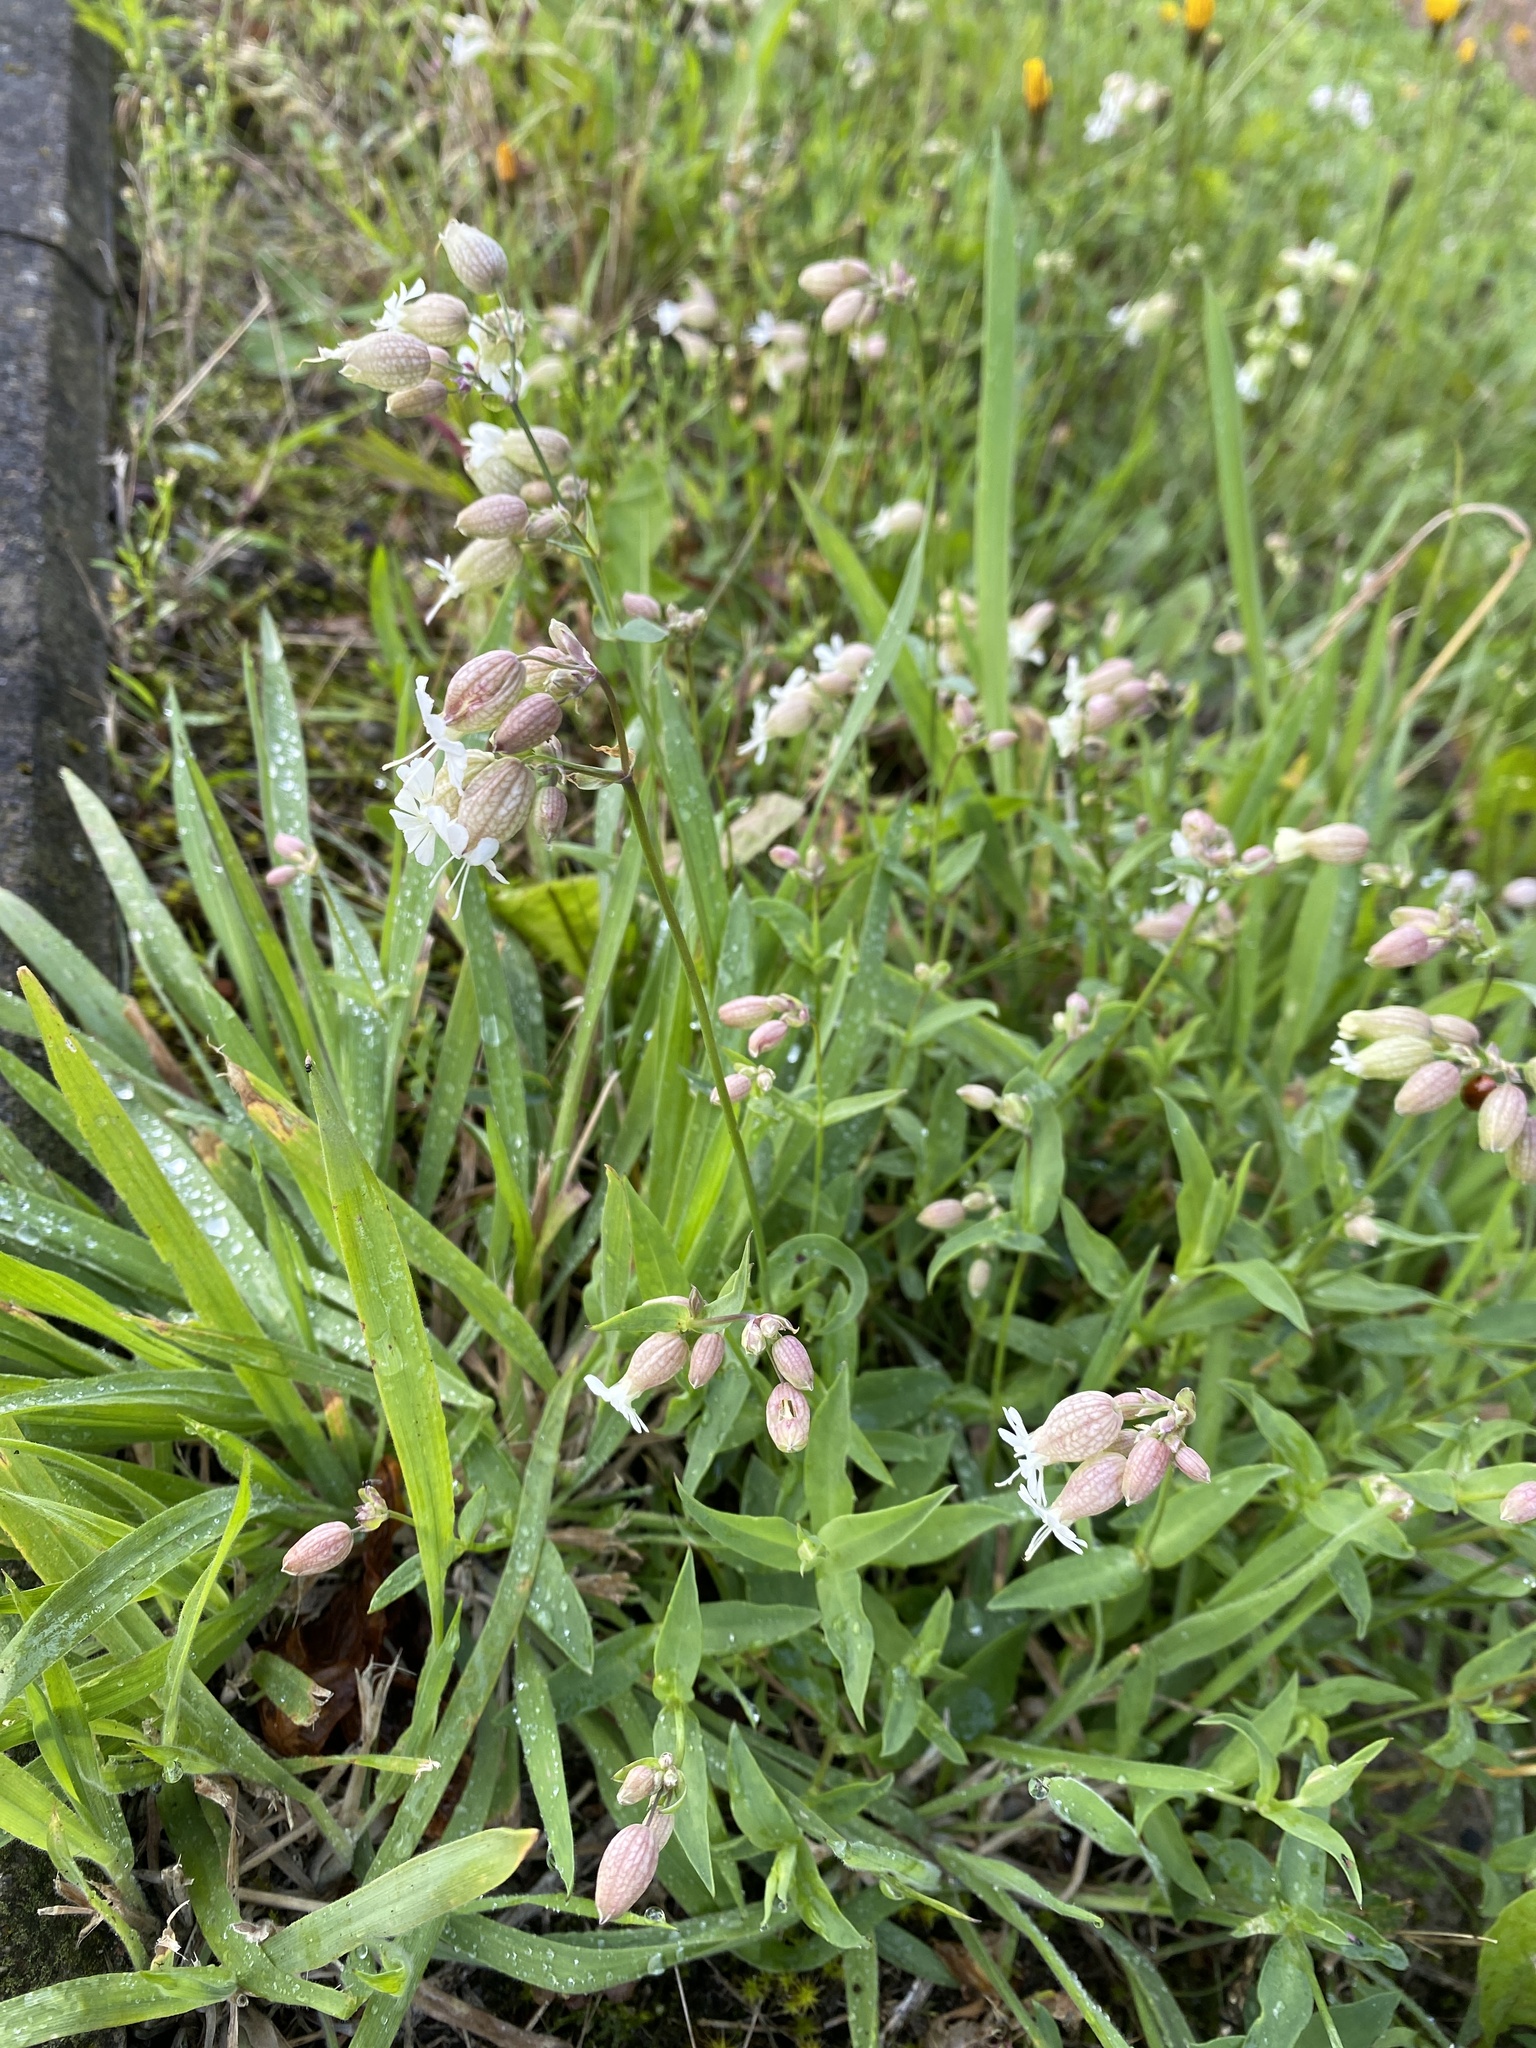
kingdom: Plantae
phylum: Tracheophyta
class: Magnoliopsida
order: Caryophyllales
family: Caryophyllaceae
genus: Silene
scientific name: Silene vulgaris
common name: Bladder campion
